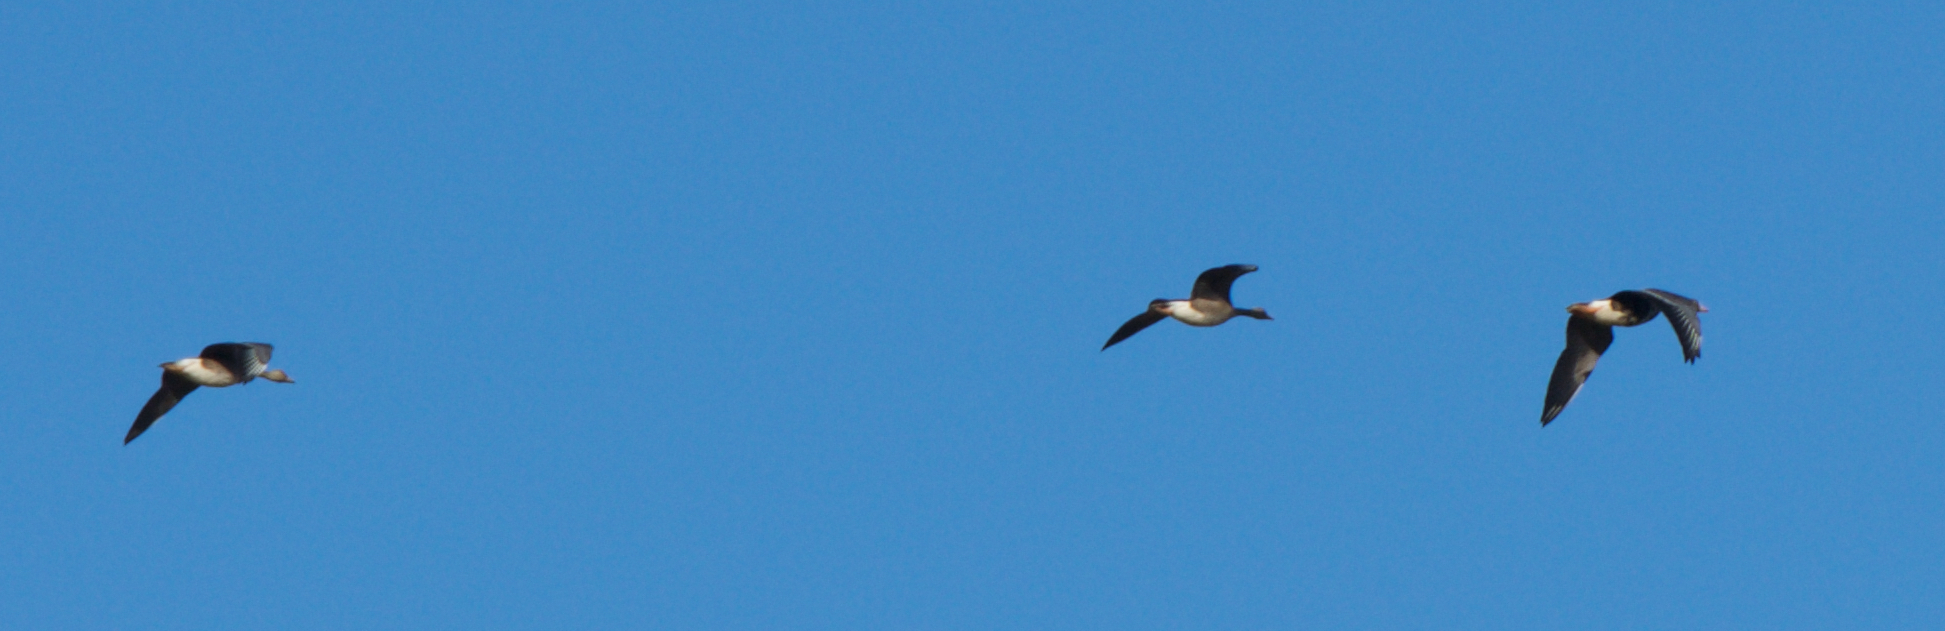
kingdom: Animalia
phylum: Chordata
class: Aves
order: Anseriformes
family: Anatidae
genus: Anser
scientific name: Anser albifrons
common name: Greater white-fronted goose
